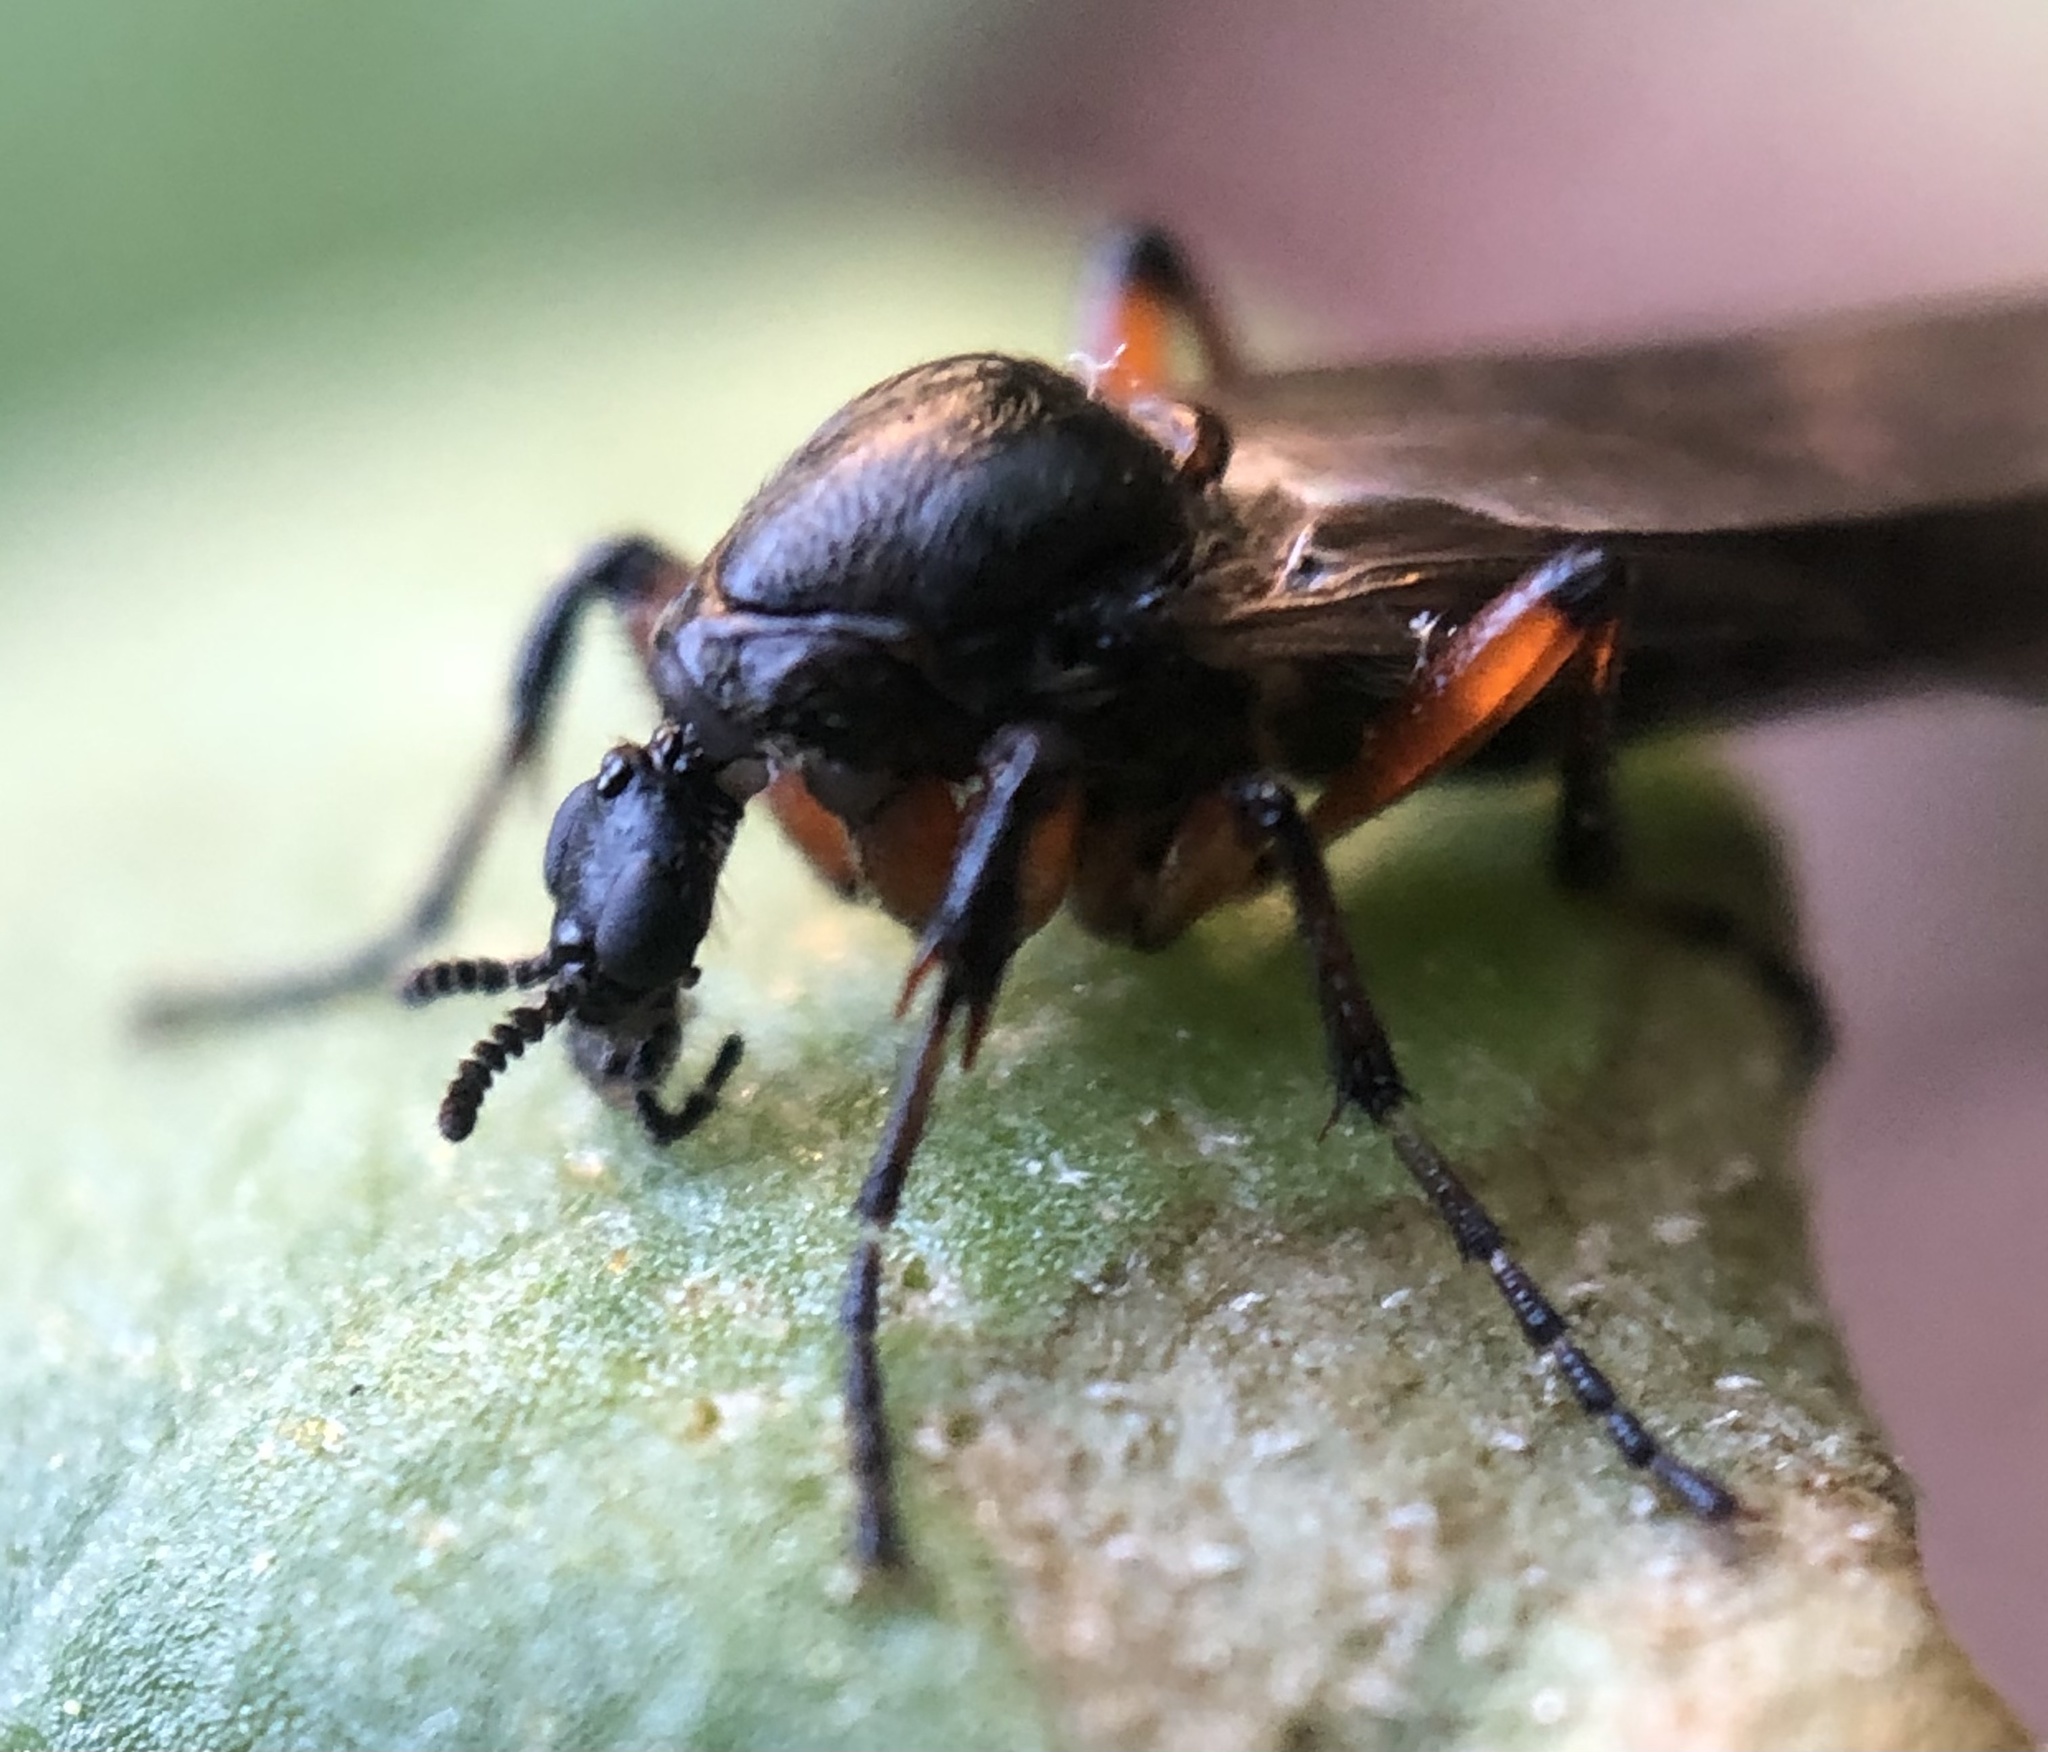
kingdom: Animalia
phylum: Arthropoda
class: Insecta
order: Diptera
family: Bibionidae
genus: Bibio
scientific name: Bibio
